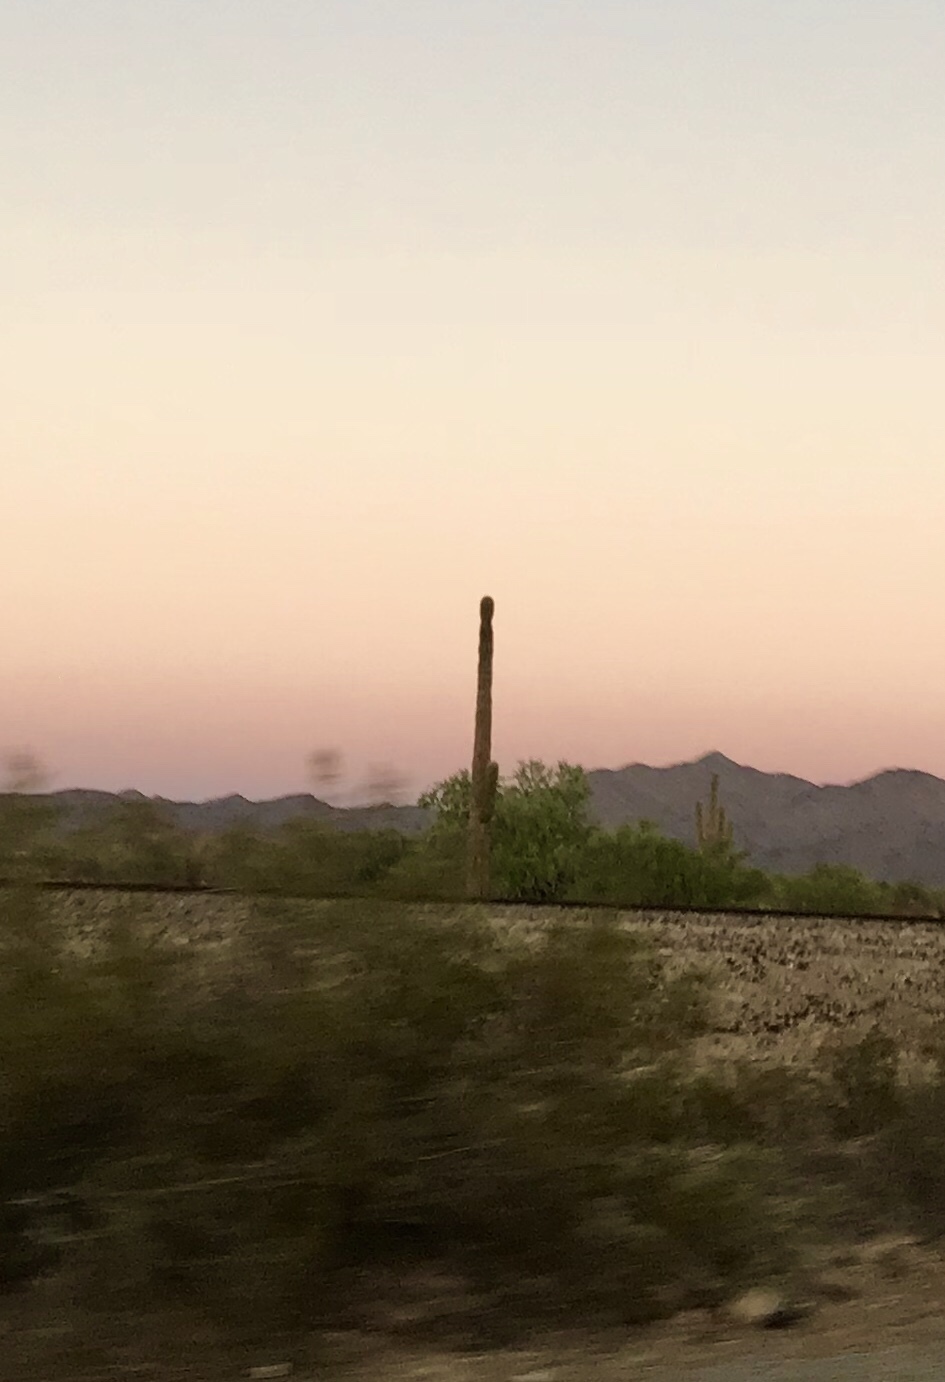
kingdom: Plantae
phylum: Tracheophyta
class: Magnoliopsida
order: Caryophyllales
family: Cactaceae
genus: Carnegiea
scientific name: Carnegiea gigantea
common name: Saguaro
